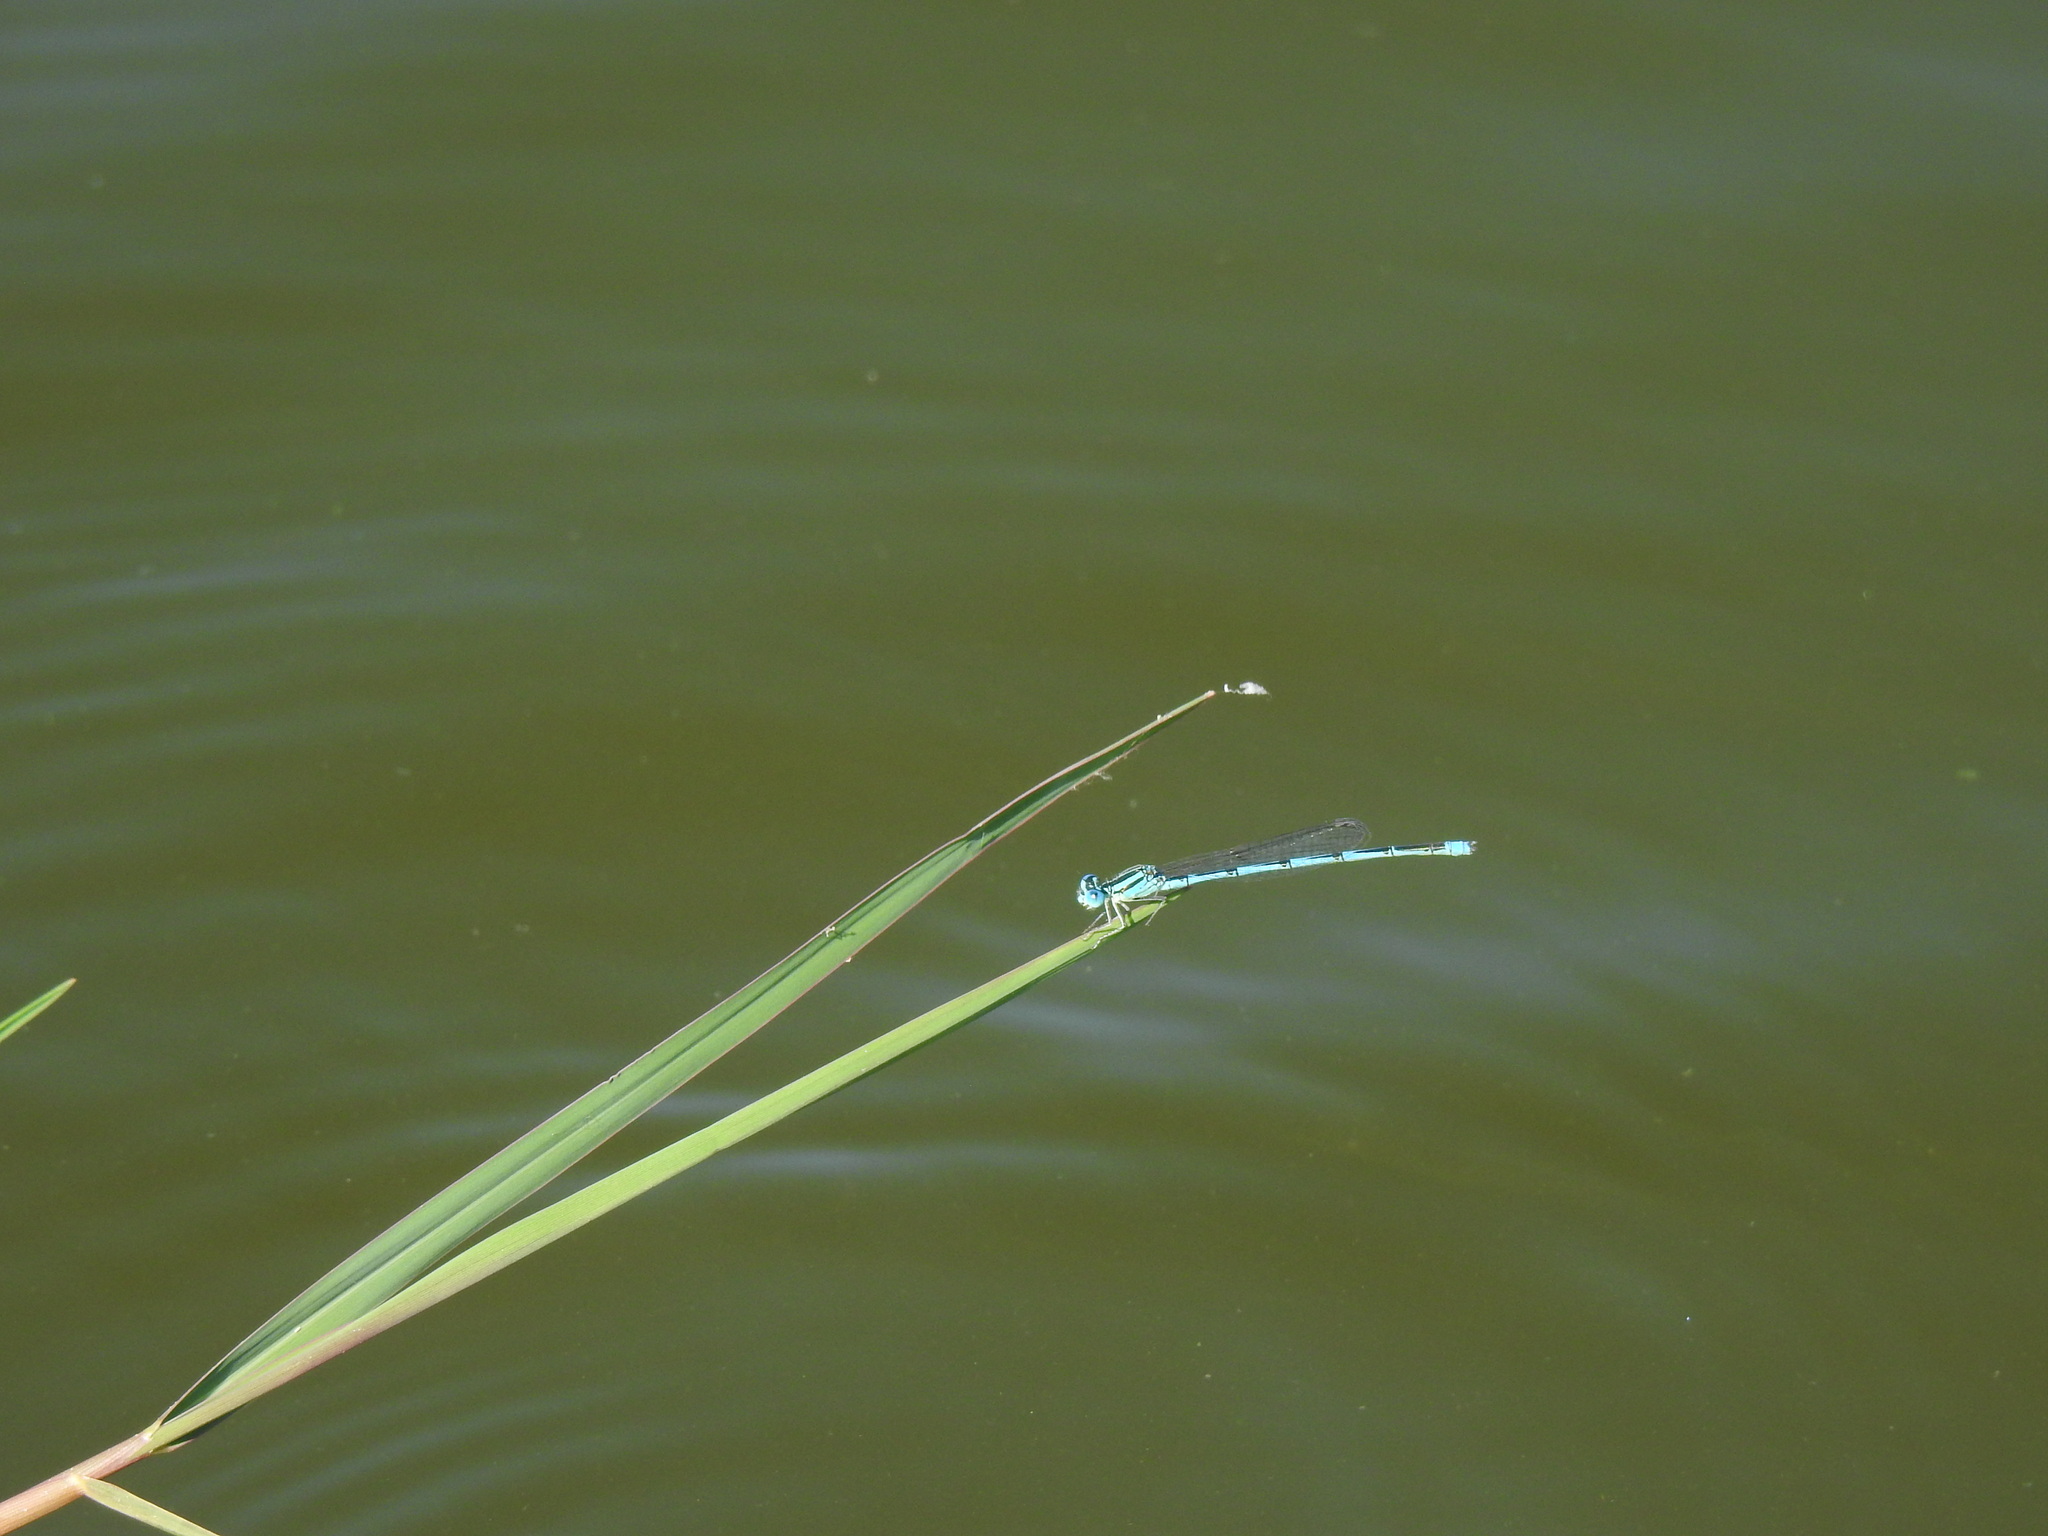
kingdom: Animalia
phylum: Arthropoda
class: Insecta
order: Odonata
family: Coenagrionidae
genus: Erythromma
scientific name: Erythromma lindenii
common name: Blue-eye
